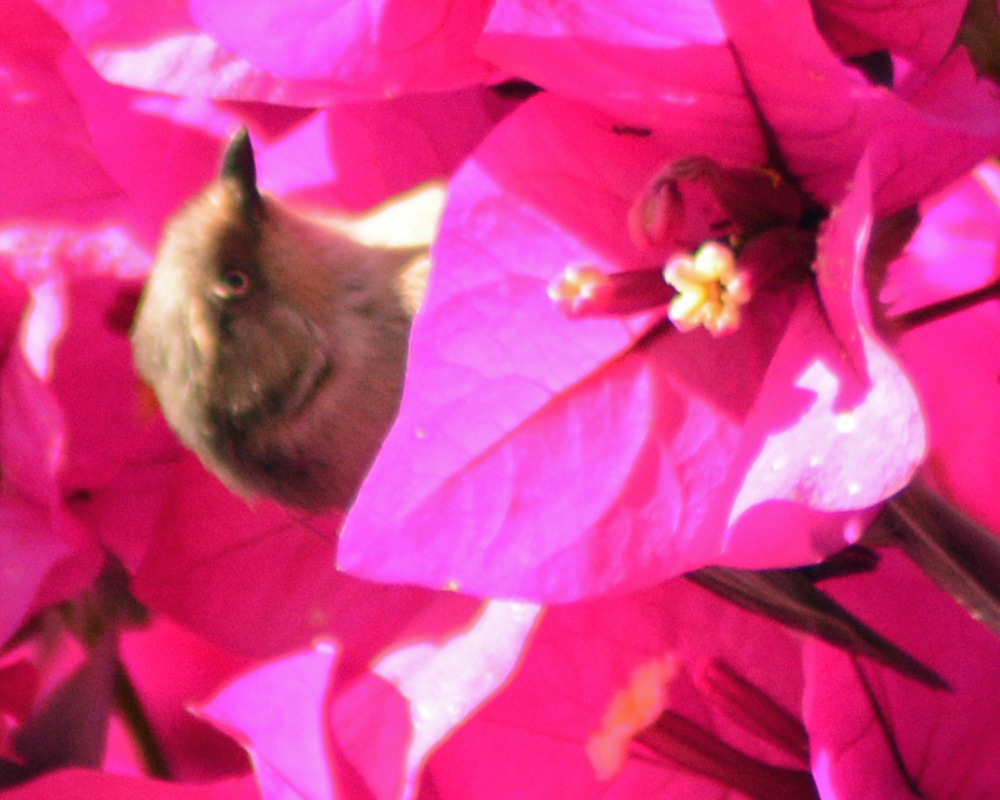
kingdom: Animalia
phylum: Chordata
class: Aves
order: Passeriformes
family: Aegithalidae
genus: Psaltriparus
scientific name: Psaltriparus minimus
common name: American bushtit
